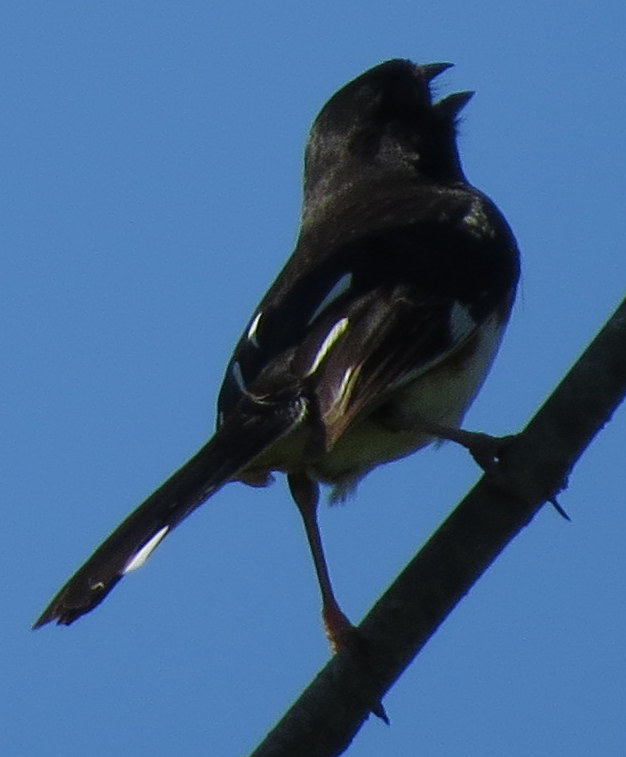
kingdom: Animalia
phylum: Chordata
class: Aves
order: Passeriformes
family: Passerellidae
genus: Pipilo
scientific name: Pipilo erythrophthalmus
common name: Eastern towhee
